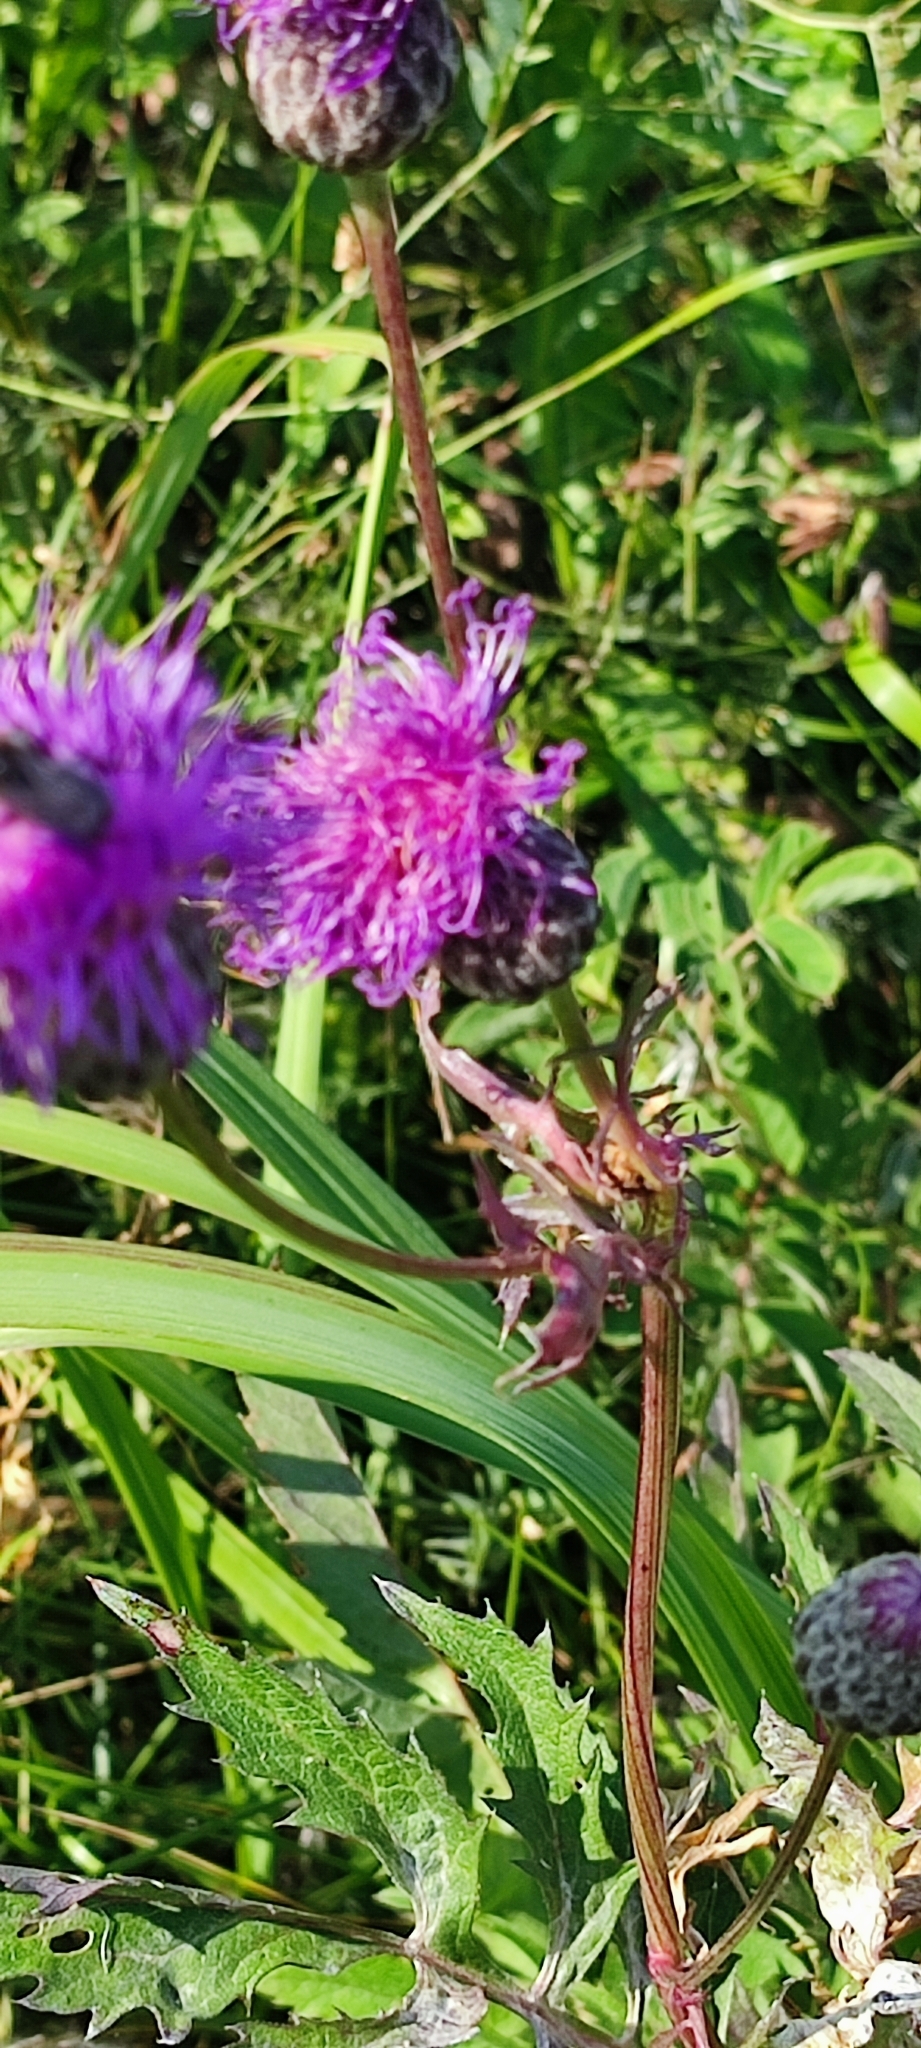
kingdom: Plantae
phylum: Tracheophyta
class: Magnoliopsida
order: Asterales
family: Asteraceae
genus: Serratula
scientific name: Serratula coronata
